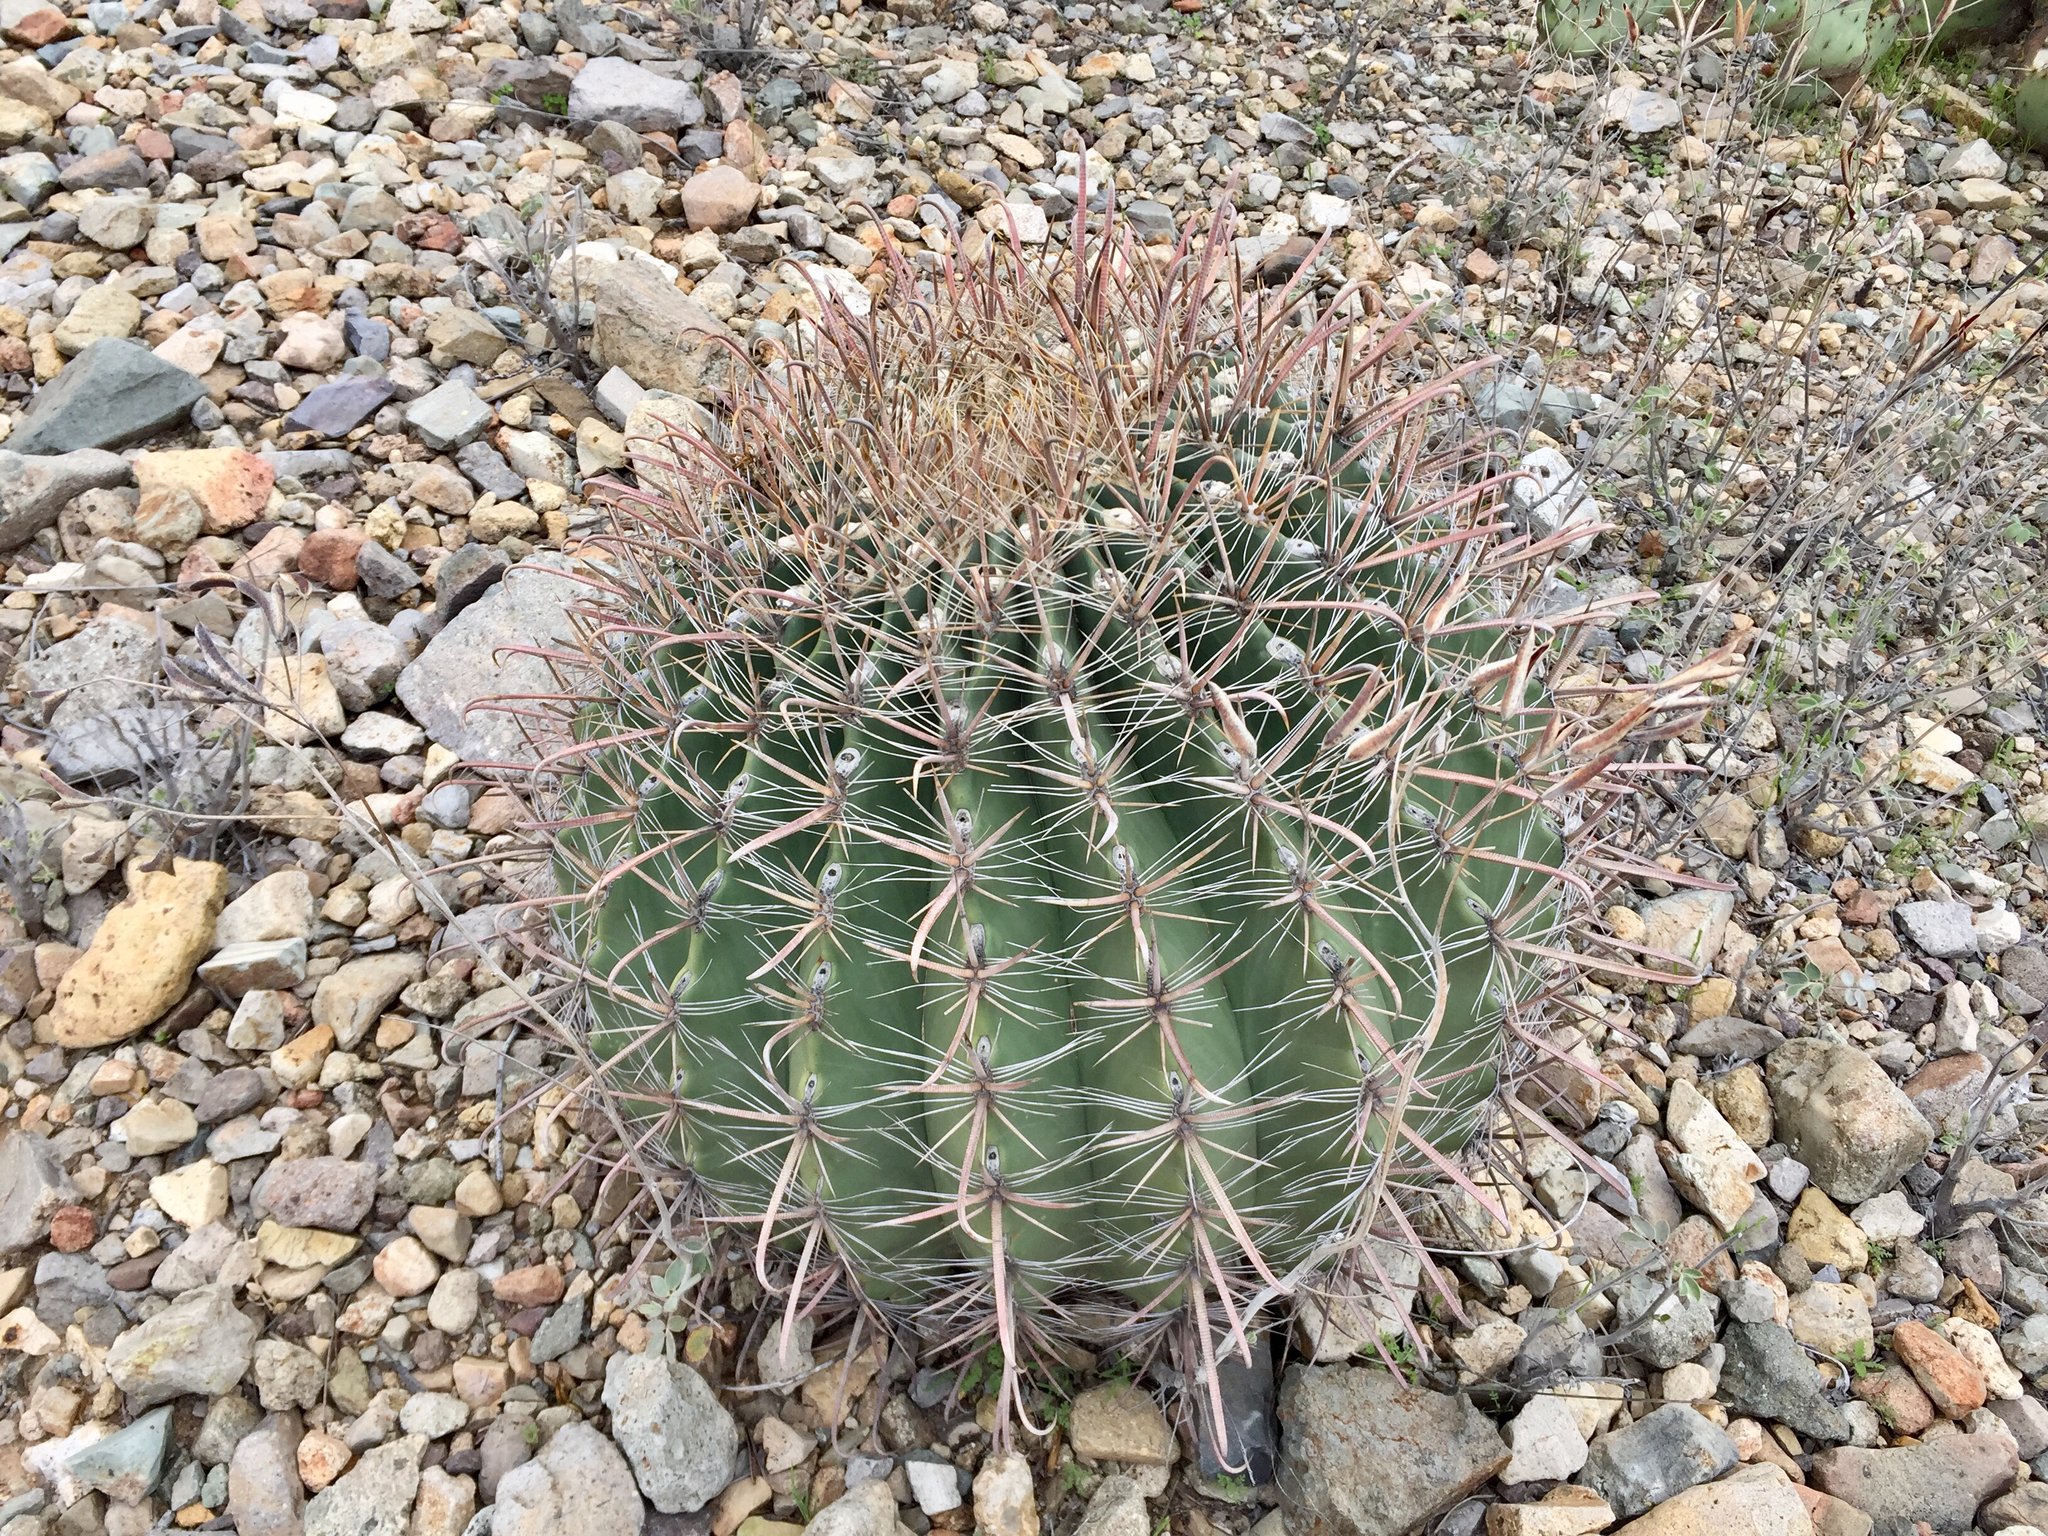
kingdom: Plantae
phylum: Tracheophyta
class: Magnoliopsida
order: Caryophyllales
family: Cactaceae
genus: Ferocactus
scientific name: Ferocactus wislizeni
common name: Candy barrel cactus
